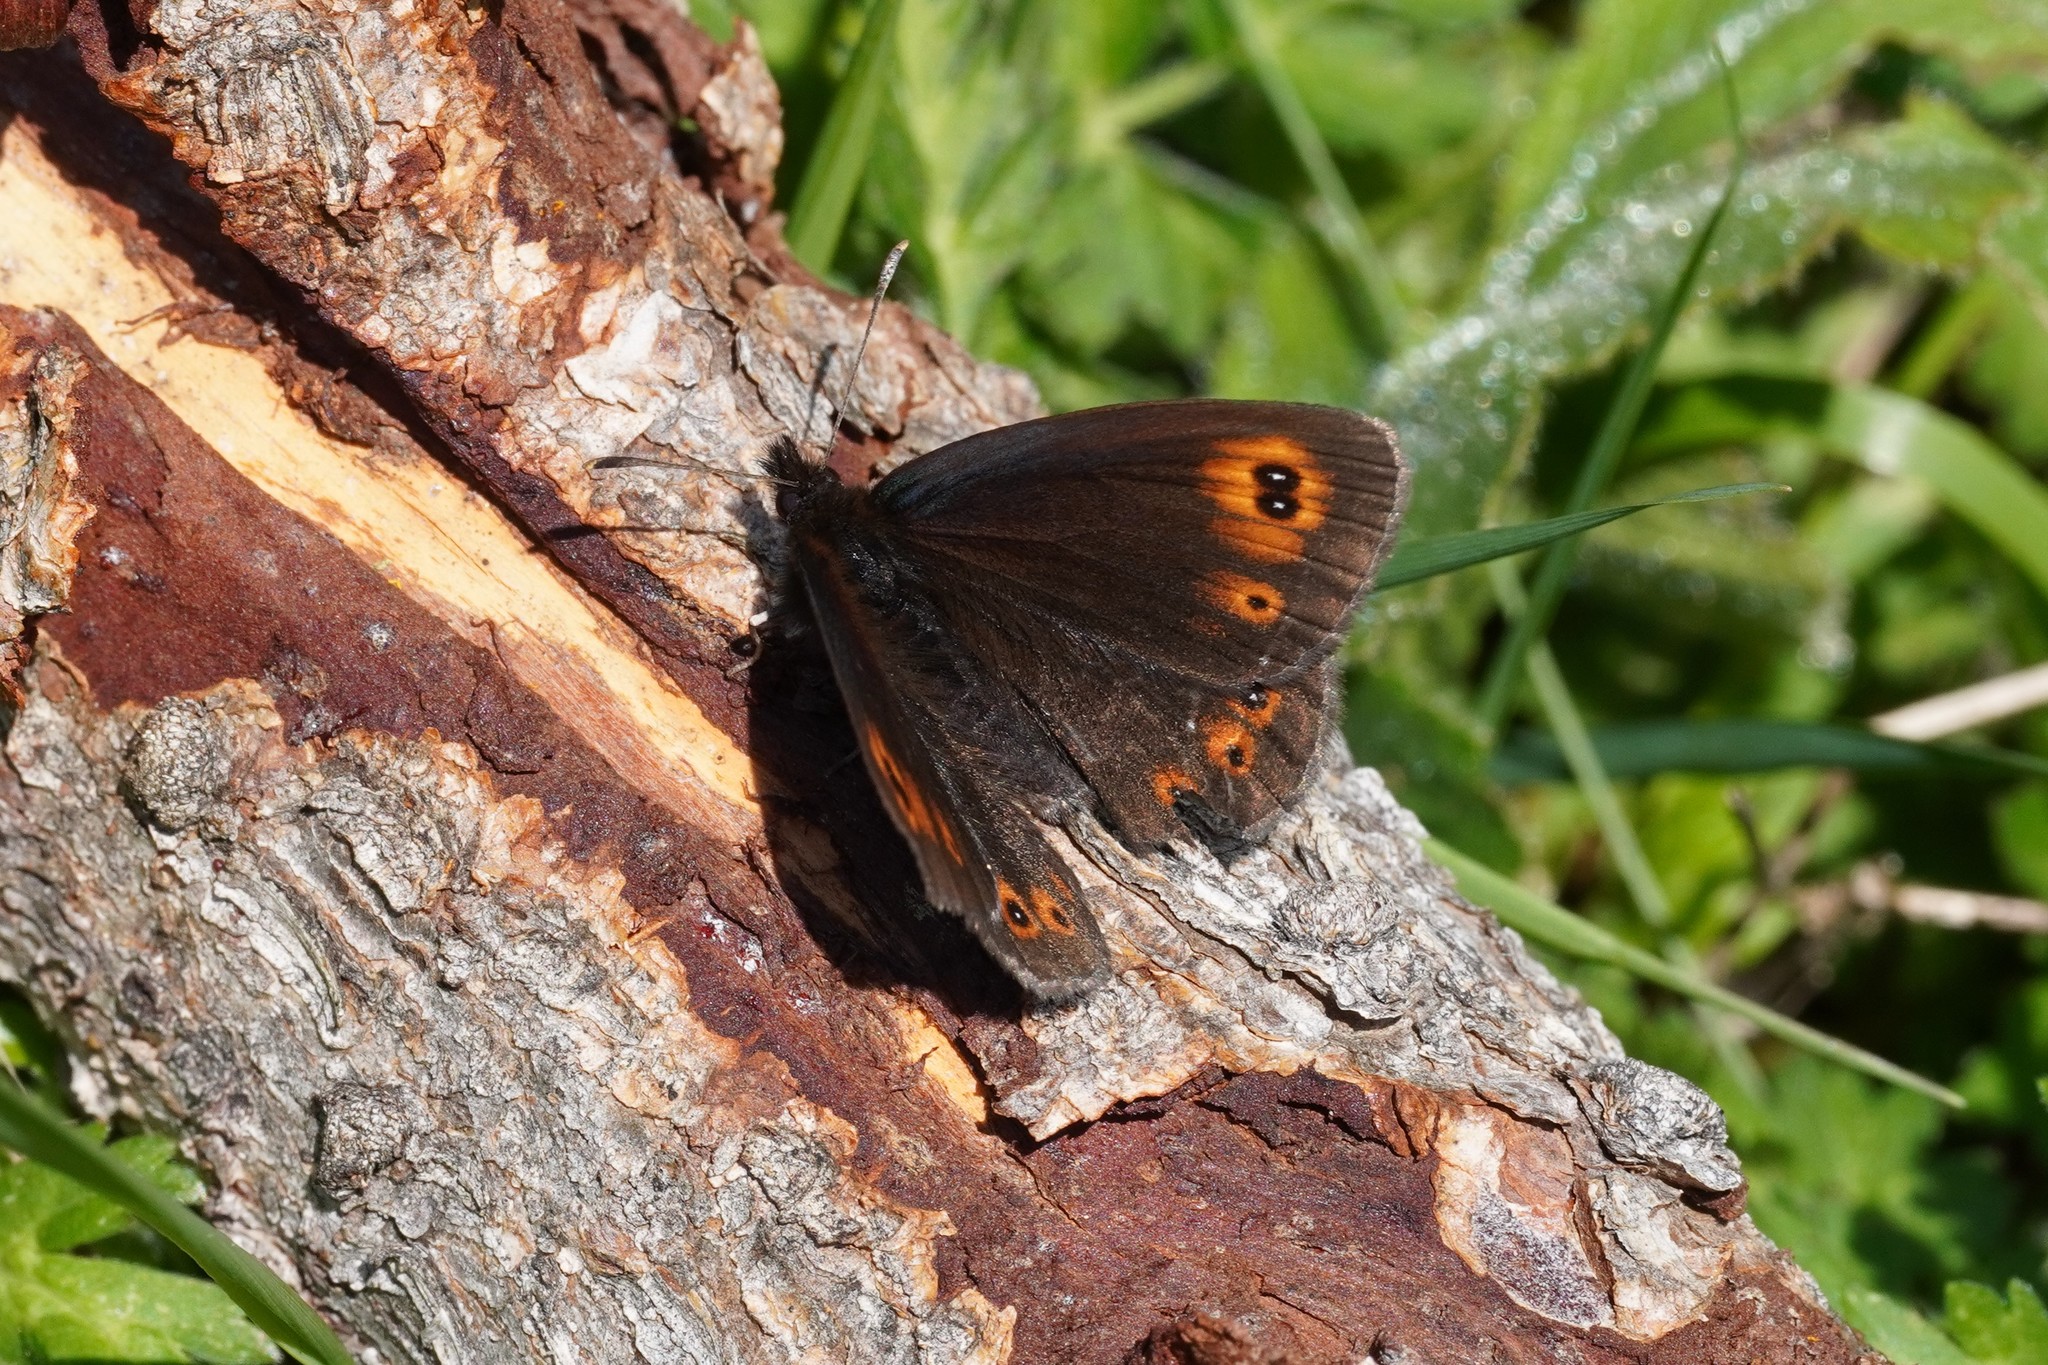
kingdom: Animalia
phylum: Arthropoda
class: Insecta
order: Lepidoptera
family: Nymphalidae
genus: Erebia
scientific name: Erebia medusa
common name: Woodland ringlet
